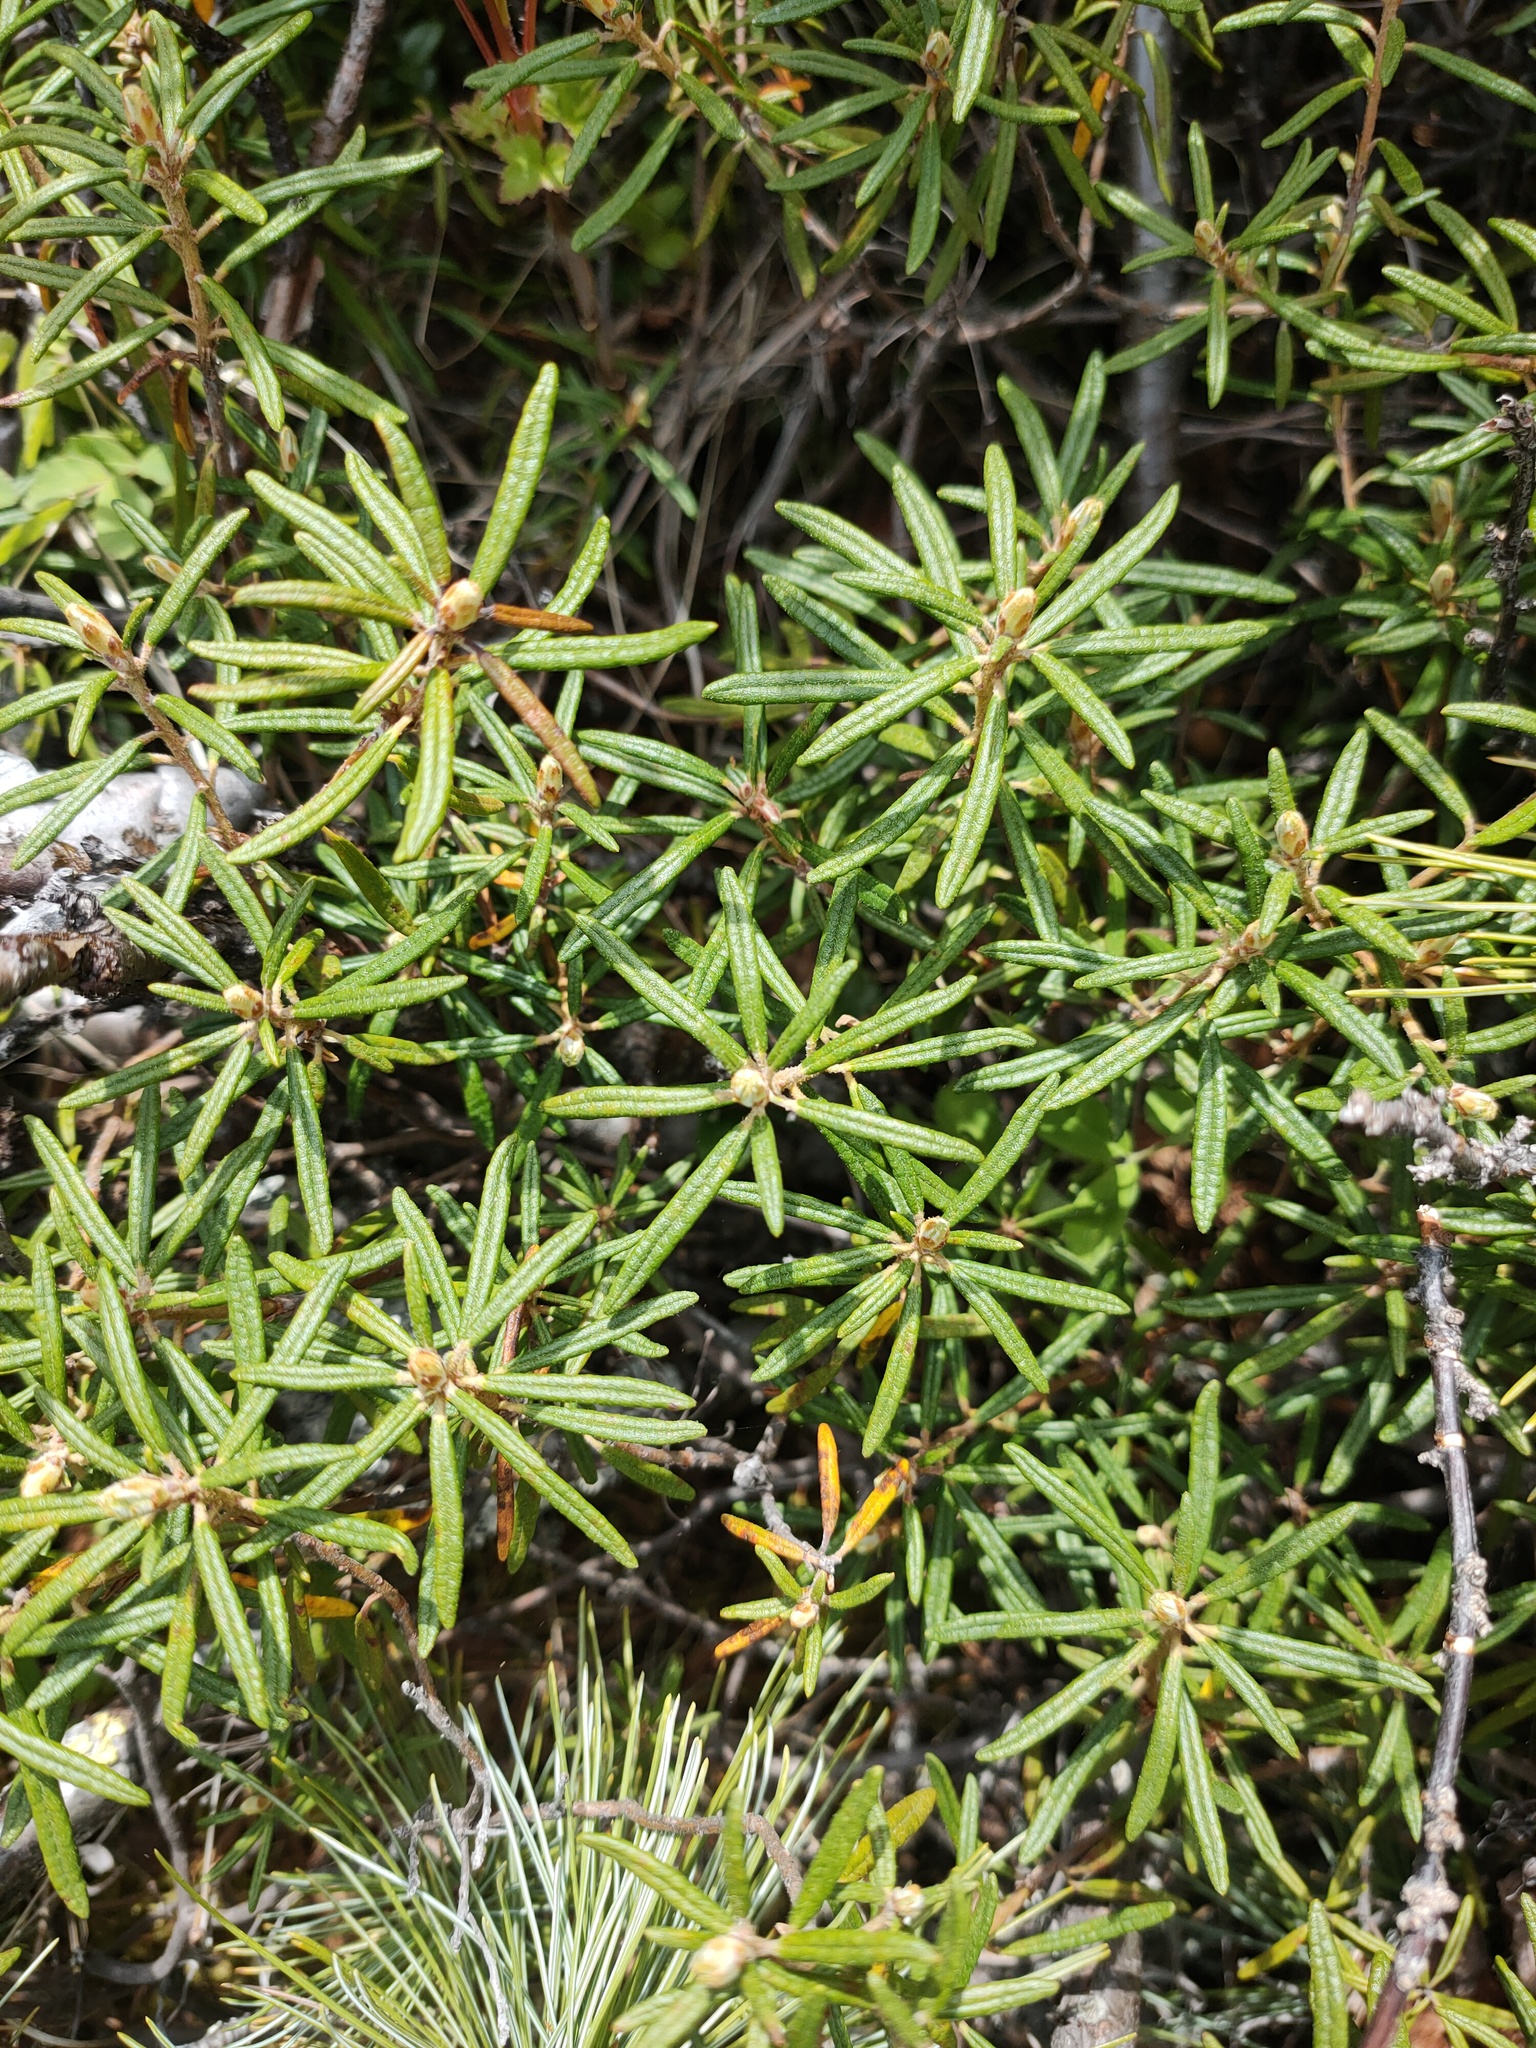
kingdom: Plantae
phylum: Tracheophyta
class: Magnoliopsida
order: Ericales
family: Ericaceae
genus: Rhododendron
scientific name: Rhododendron tomentosum
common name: Marsh labrador tea
